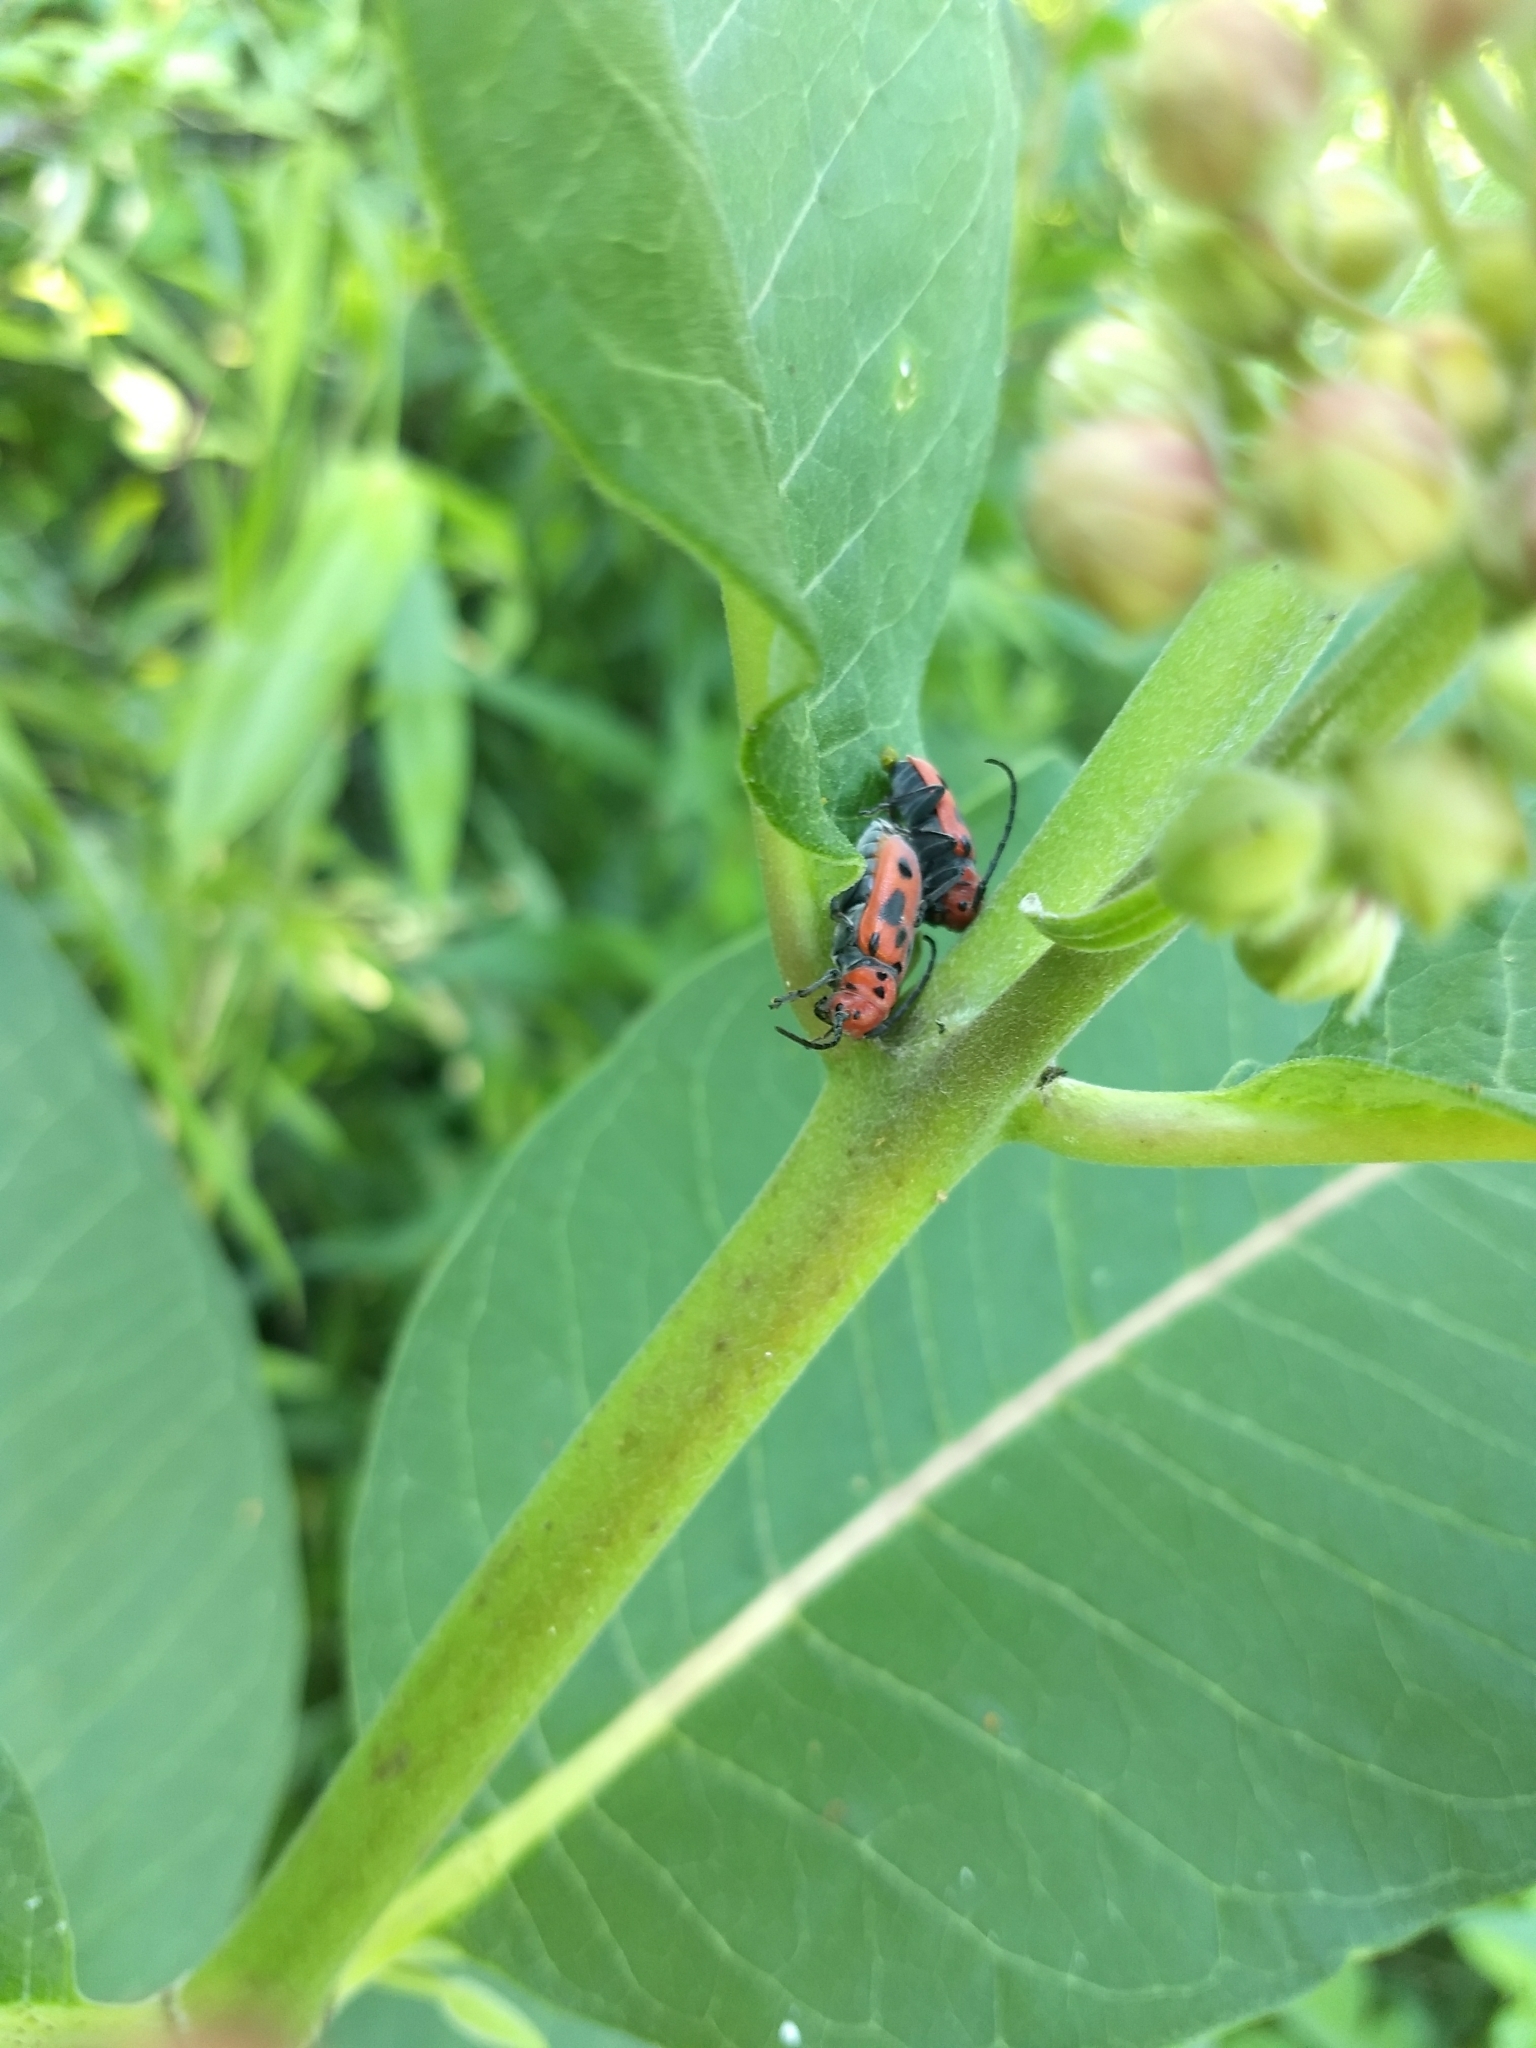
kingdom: Animalia
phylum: Arthropoda
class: Insecta
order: Coleoptera
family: Cerambycidae
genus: Tetraopes
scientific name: Tetraopes tetrophthalmus
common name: Red milkweed beetle
